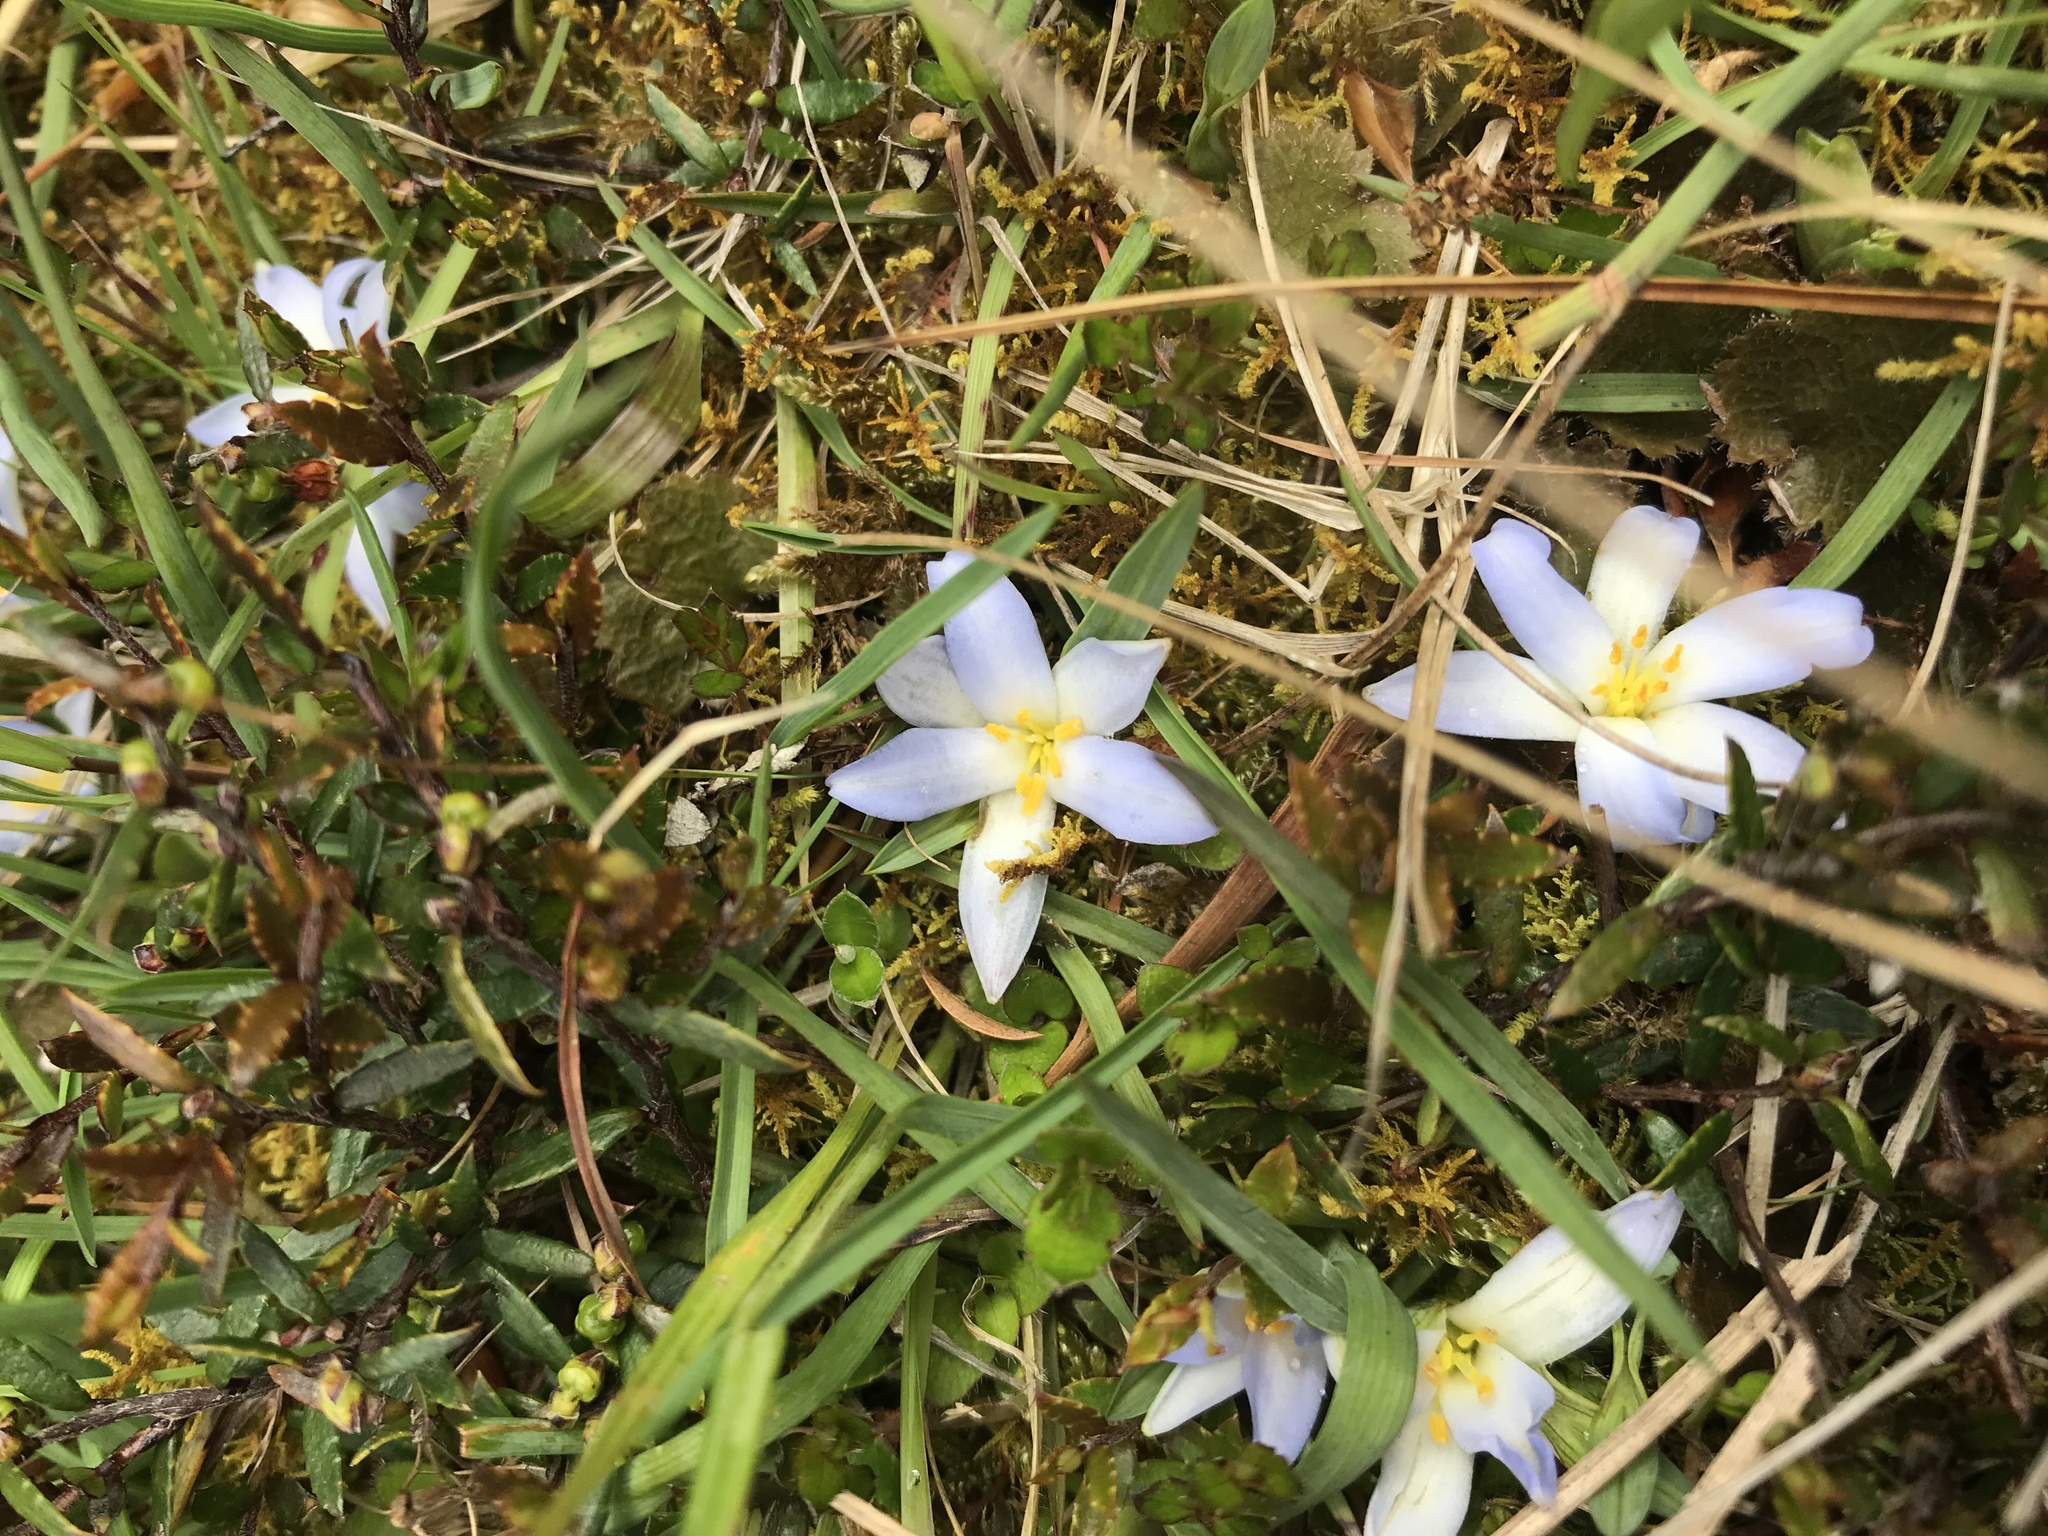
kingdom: Plantae
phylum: Tracheophyta
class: Liliopsida
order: Asparagales
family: Asphodelaceae
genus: Herpolirion
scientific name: Herpolirion novae-zelandiae
